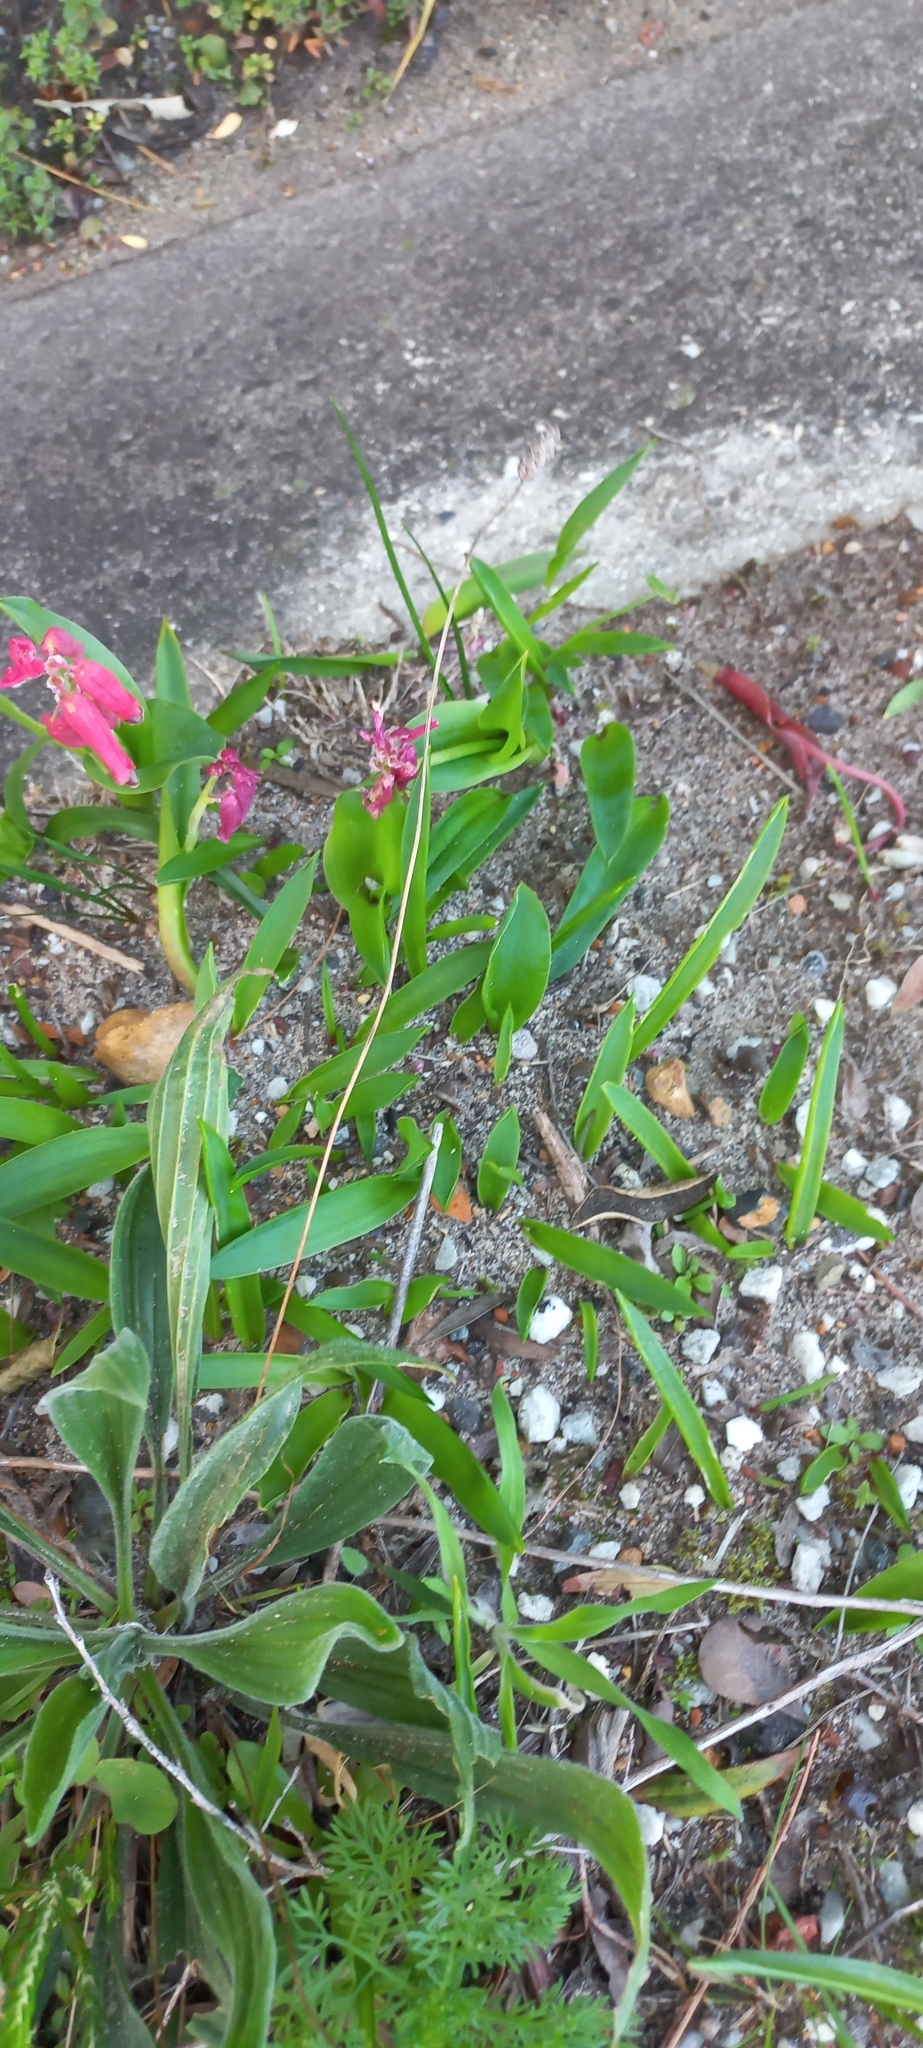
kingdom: Plantae
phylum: Tracheophyta
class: Liliopsida
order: Asparagales
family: Asparagaceae
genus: Lachenalia
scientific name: Lachenalia bulbifera
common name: Red lachenalia
